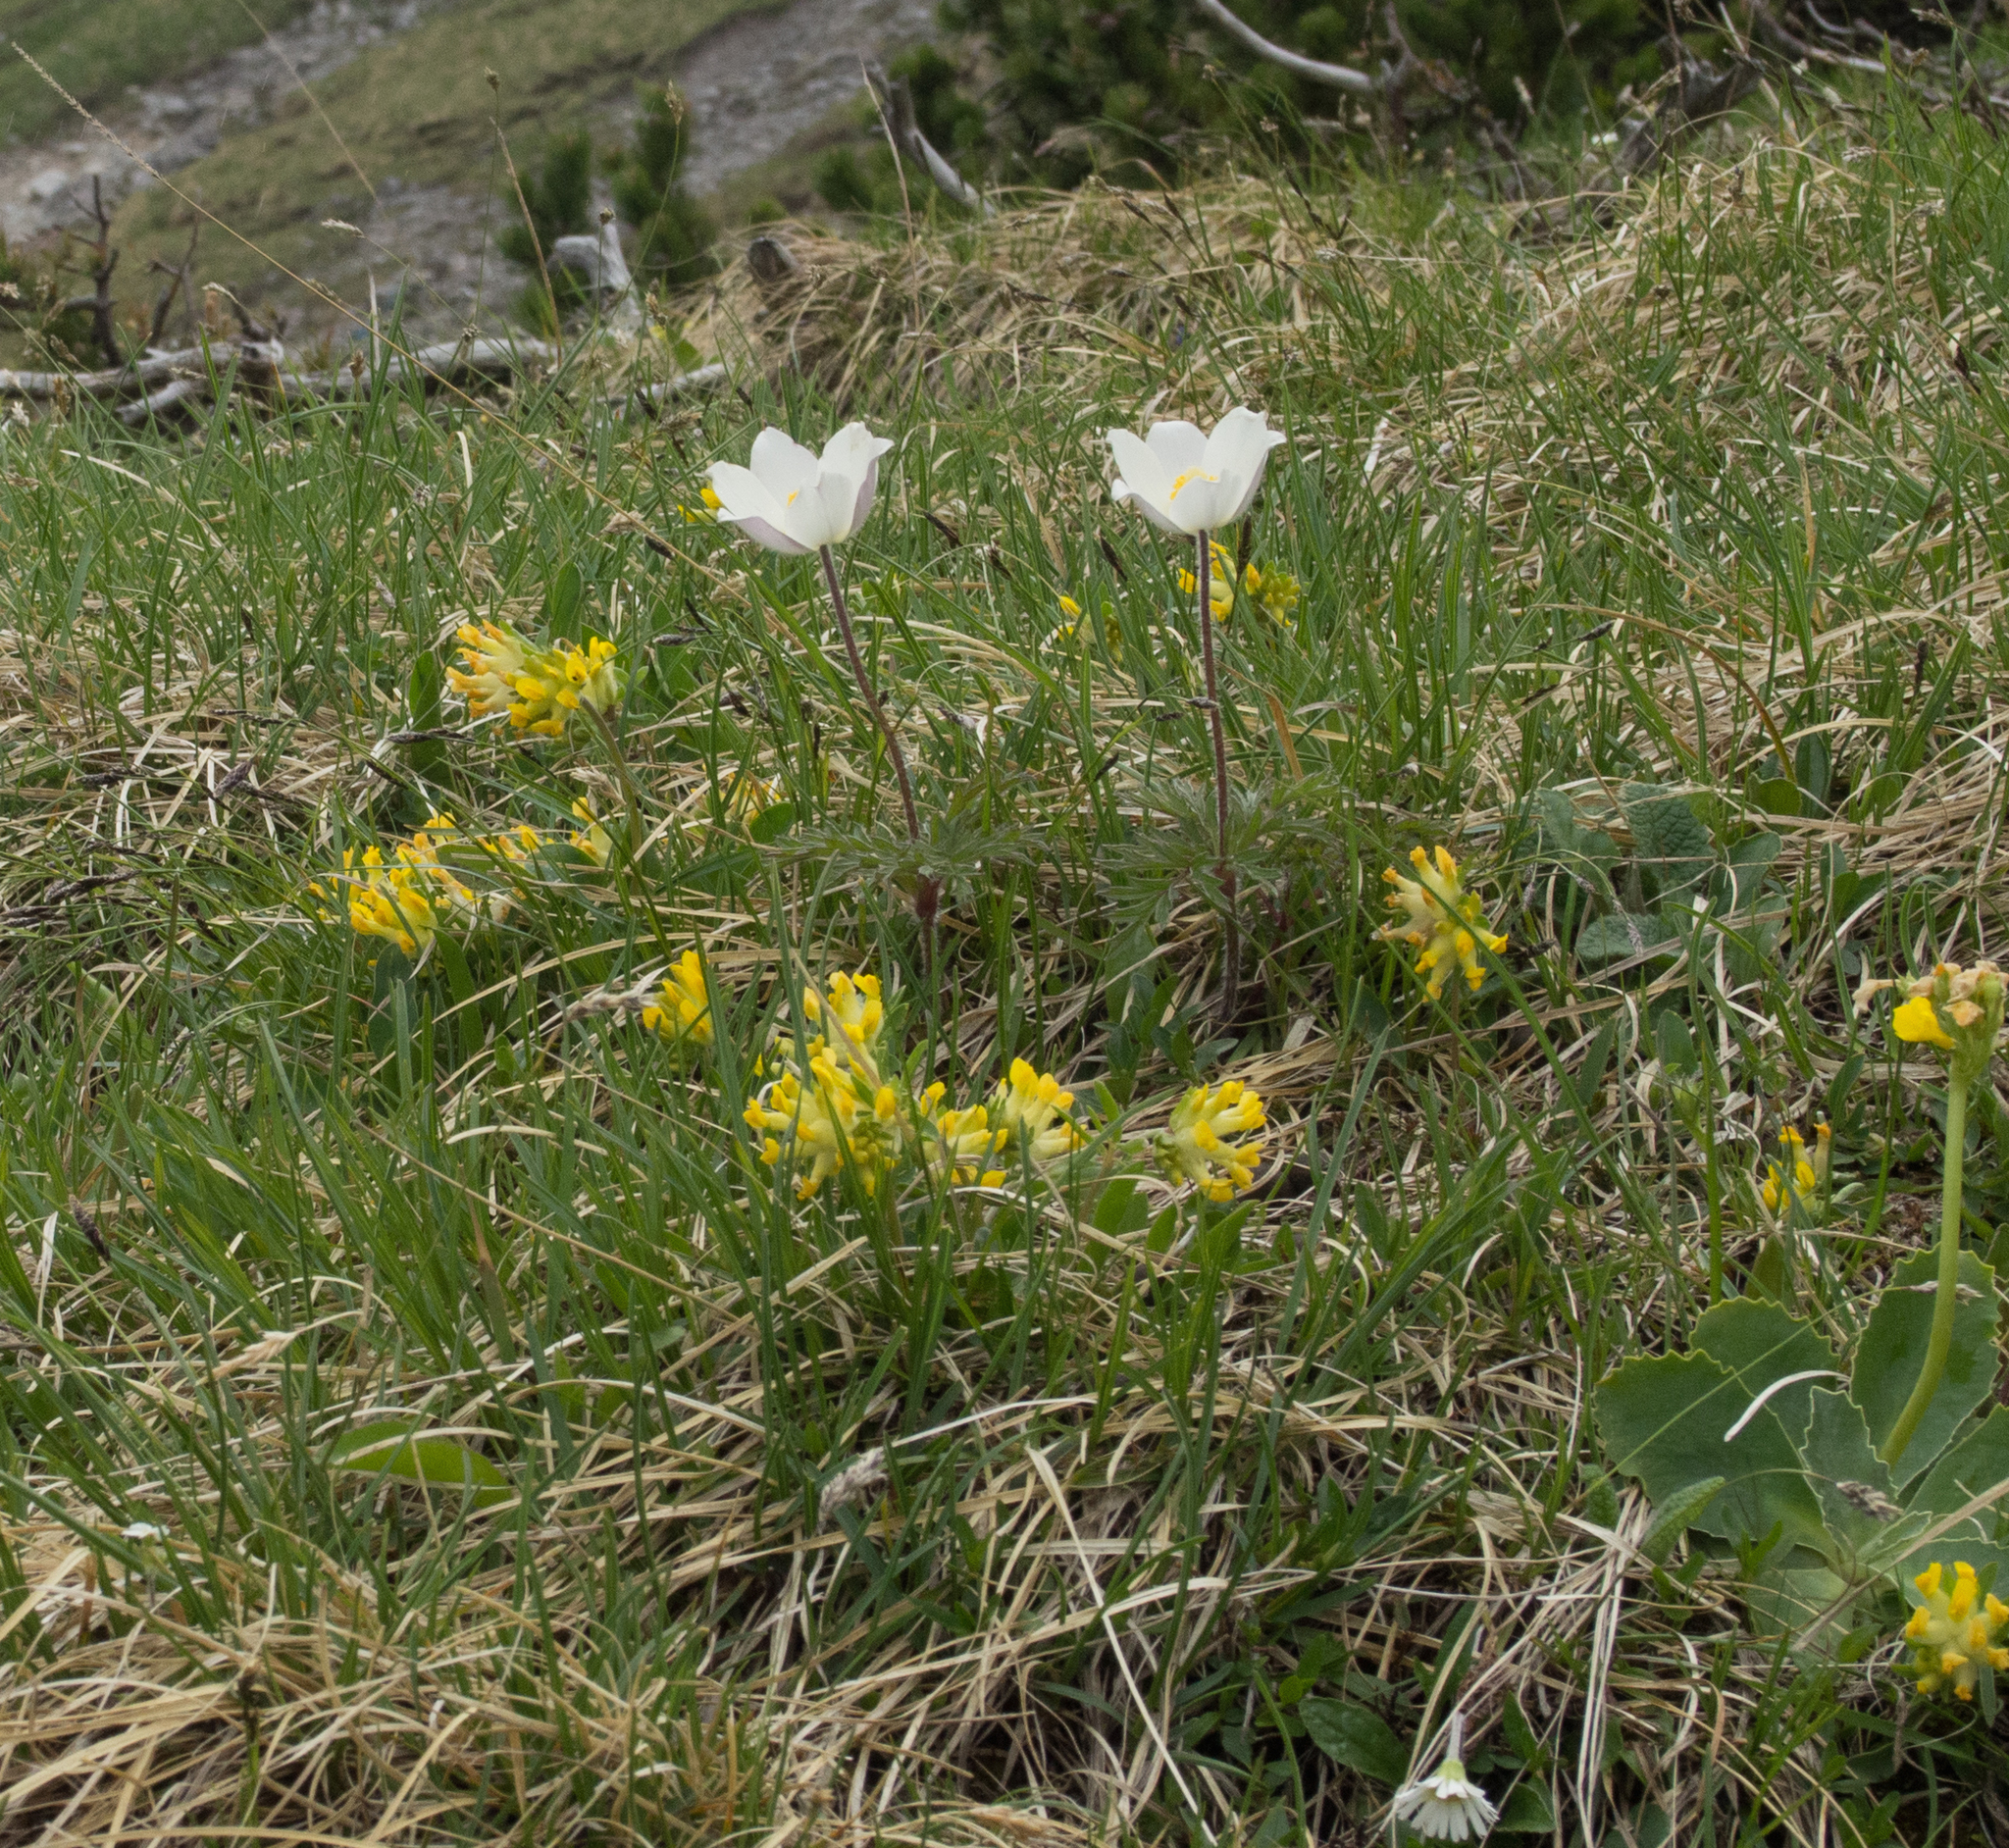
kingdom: Plantae
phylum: Tracheophyta
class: Magnoliopsida
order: Ranunculales
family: Ranunculaceae
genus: Pulsatilla
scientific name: Pulsatilla alpina
